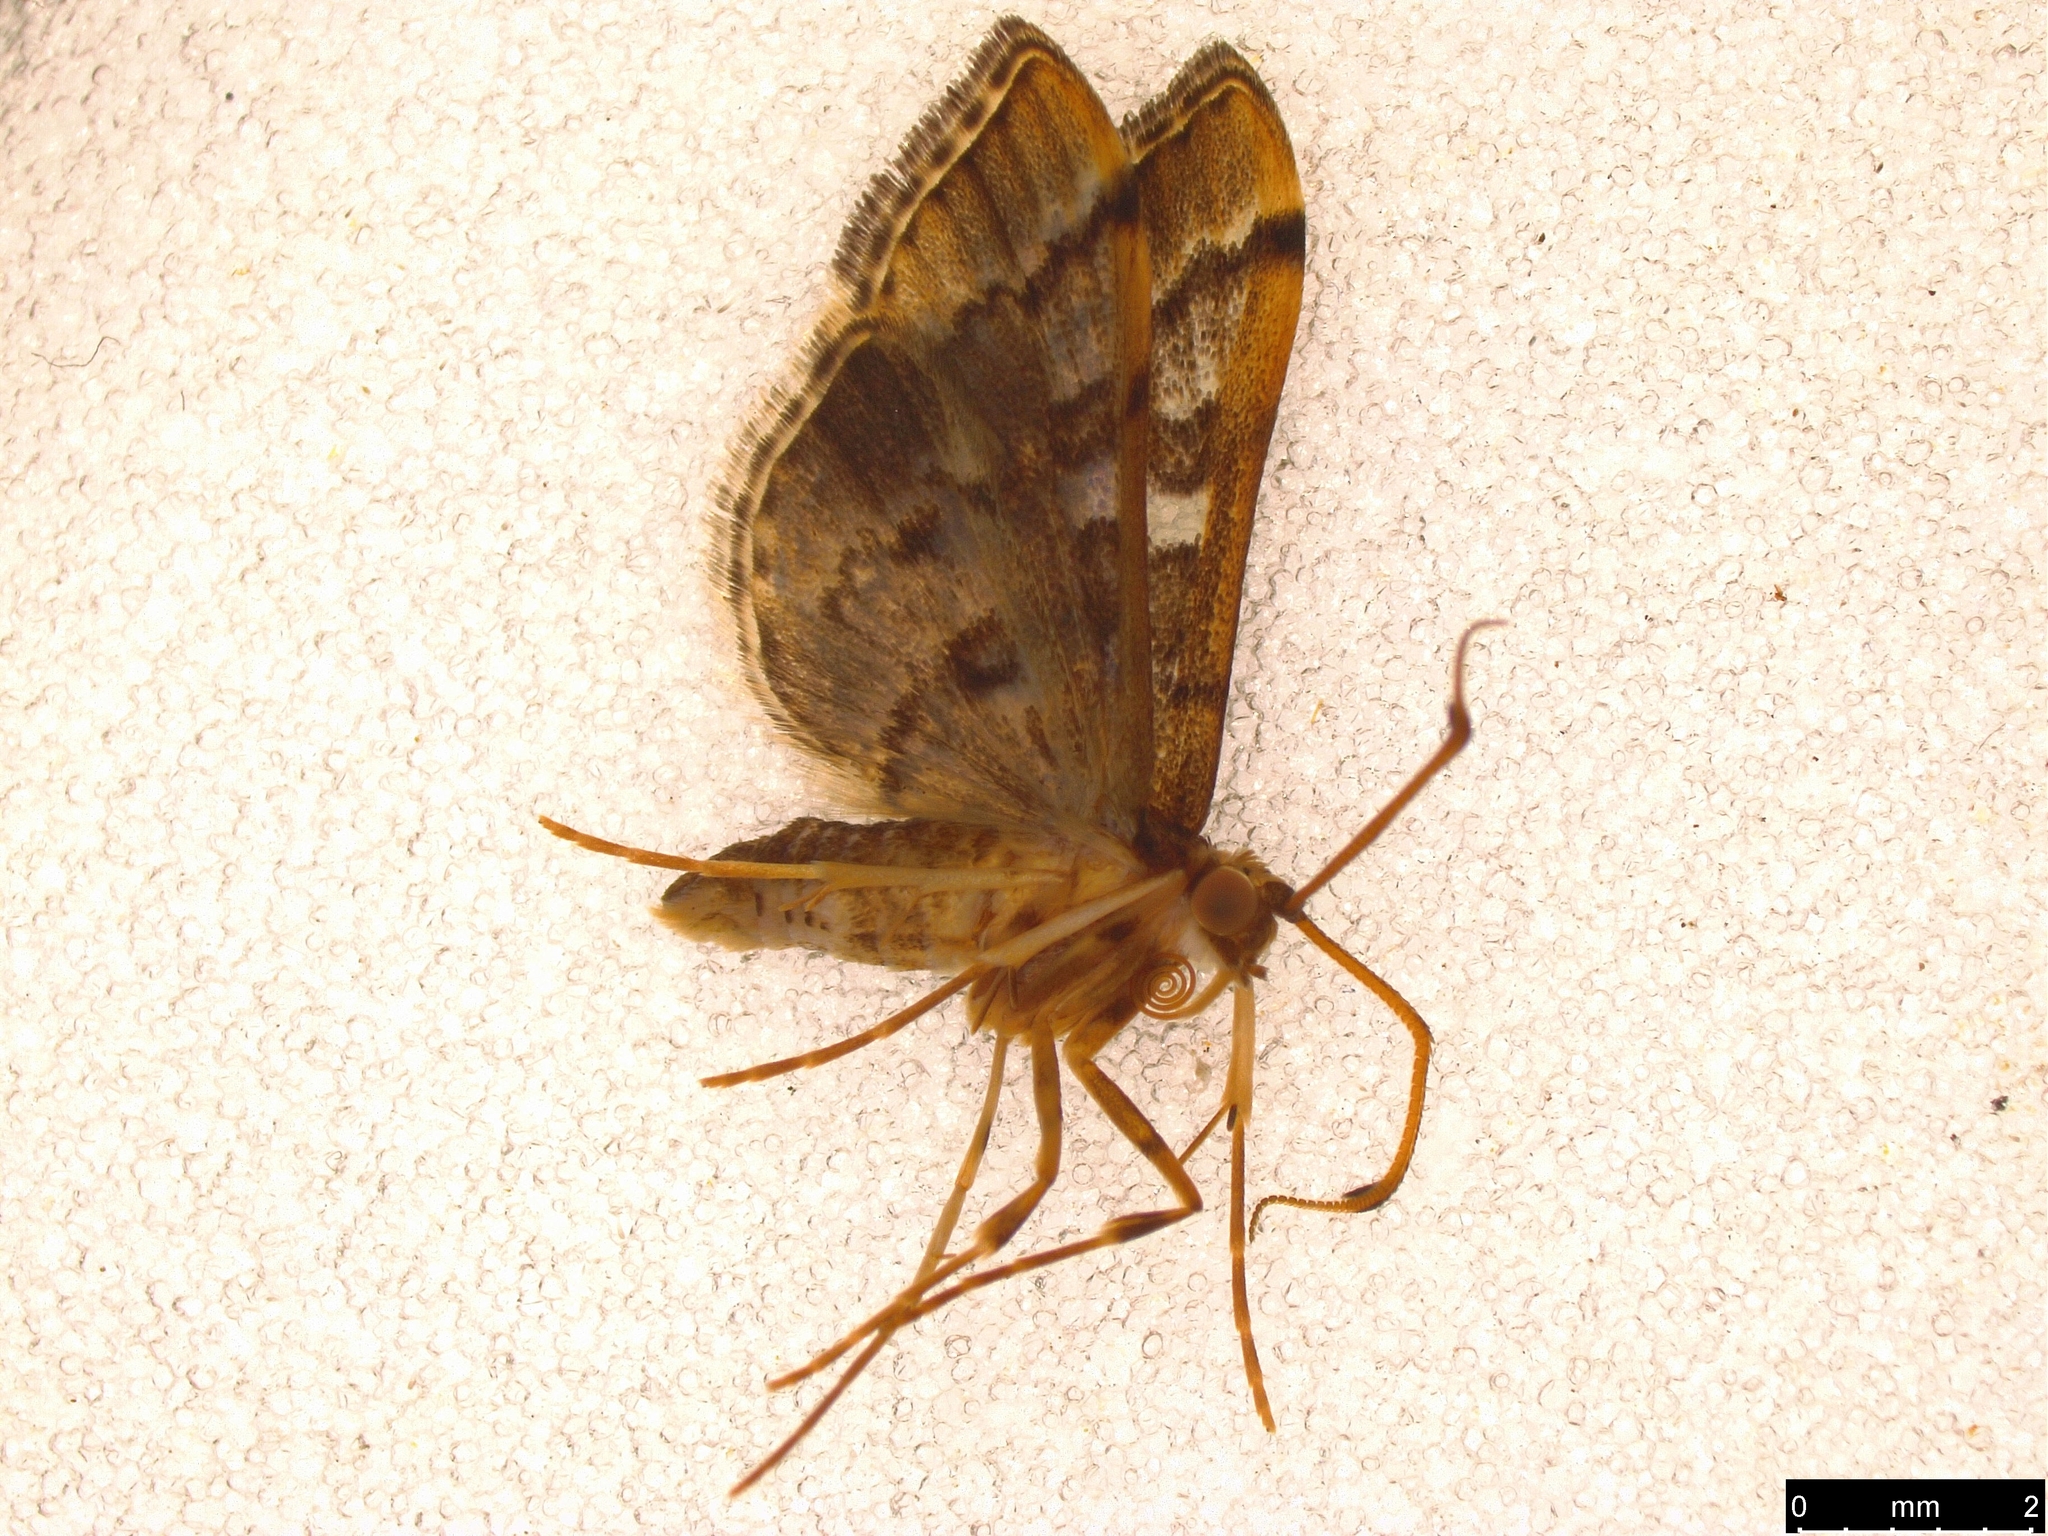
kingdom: Animalia
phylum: Arthropoda
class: Insecta
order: Lepidoptera
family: Crambidae
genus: Nacoleia
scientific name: Nacoleia rhoeoalis
